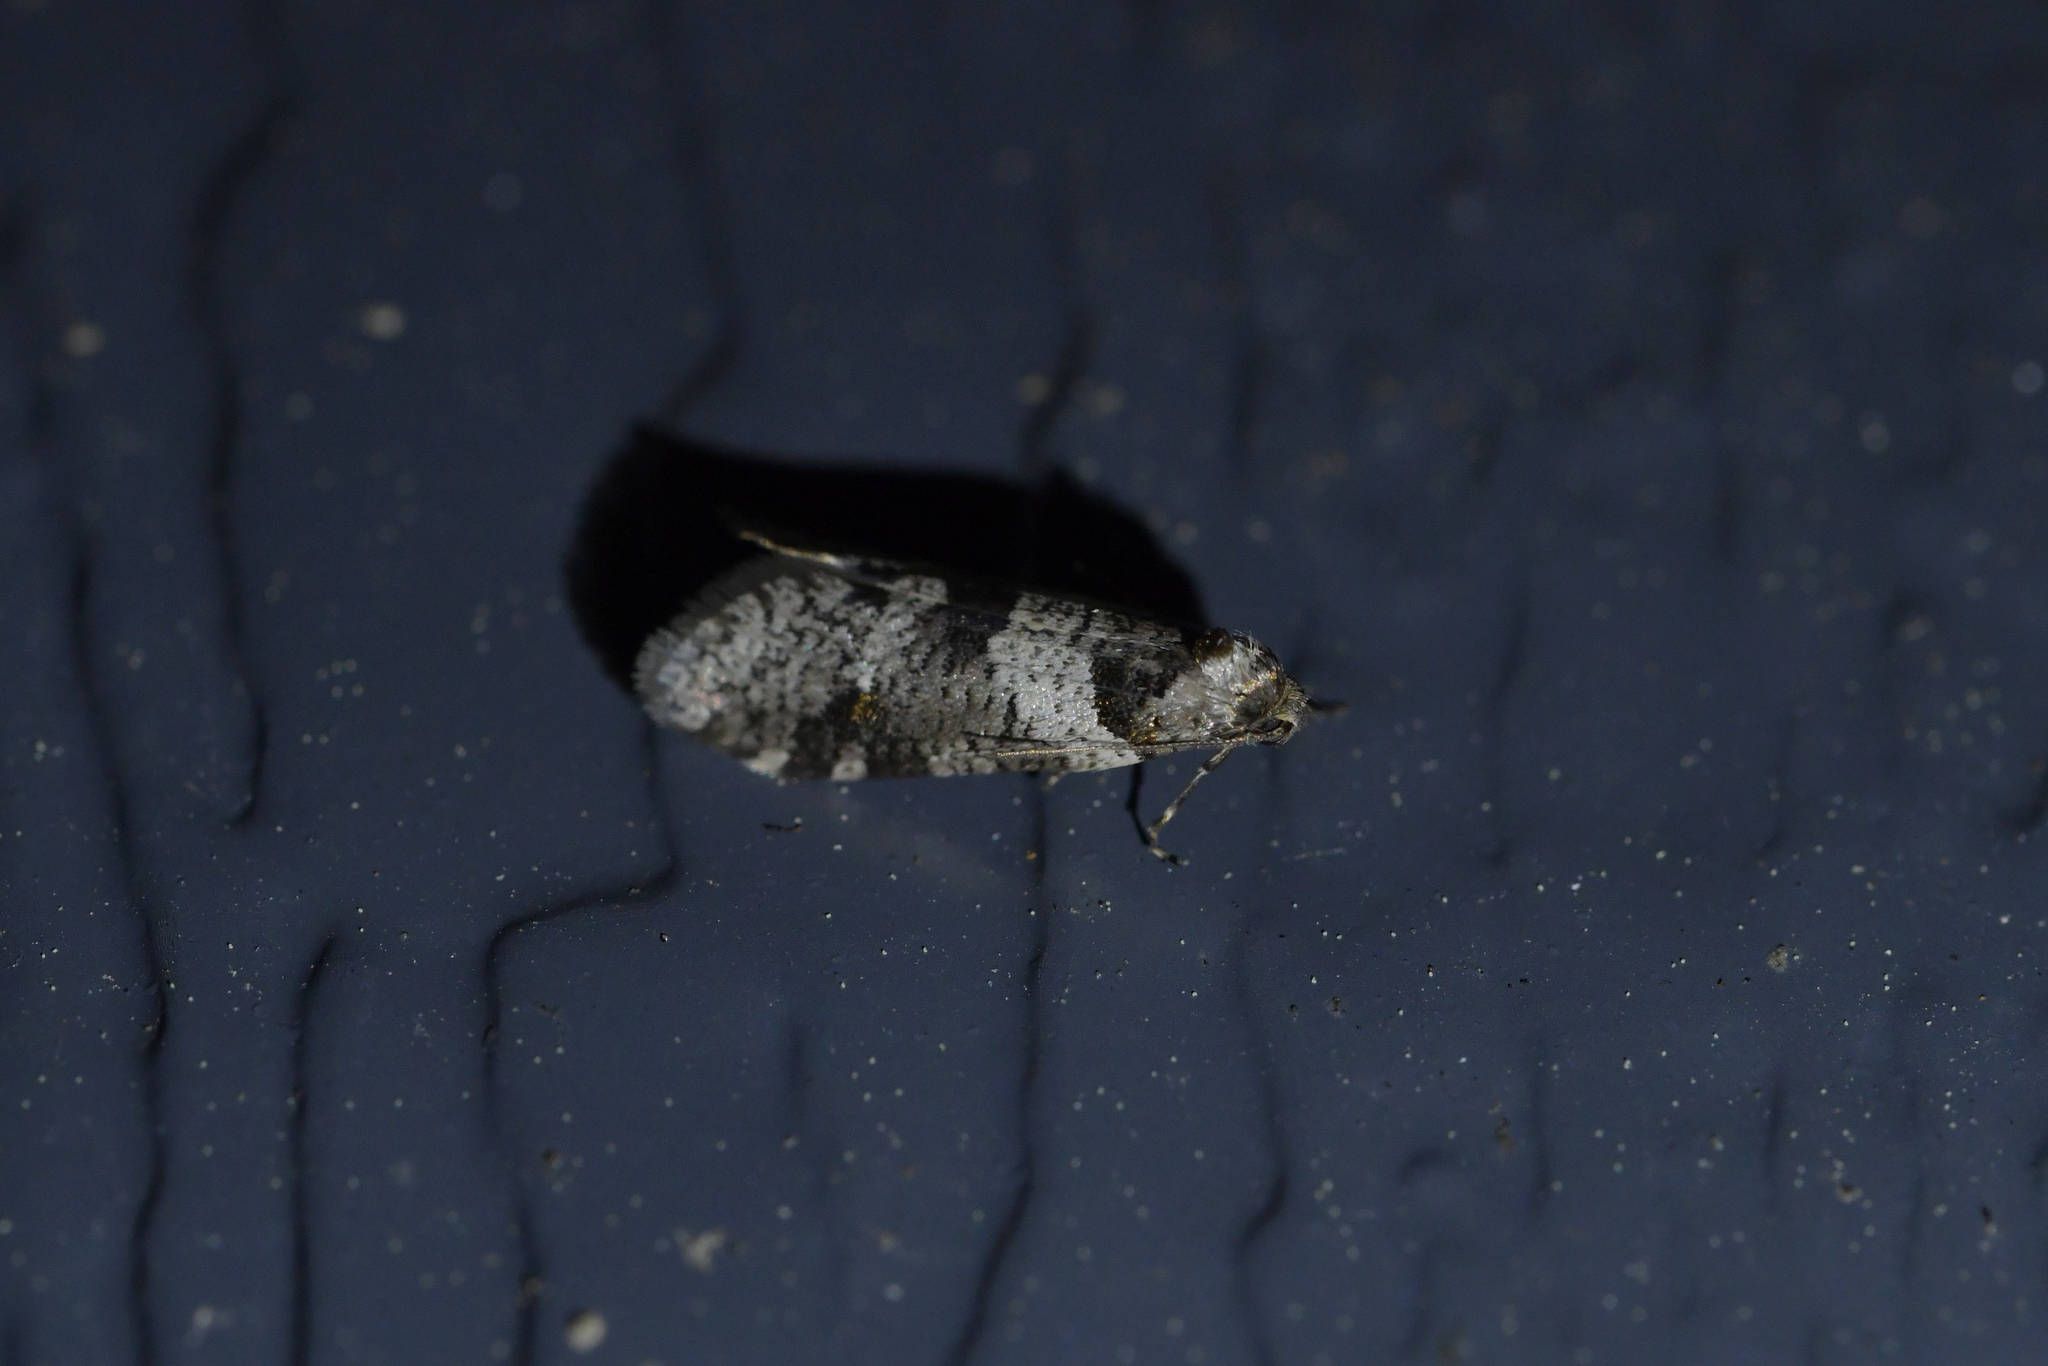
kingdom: Animalia
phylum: Arthropoda
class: Insecta
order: Lepidoptera
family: Psychidae
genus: Lepidoscia
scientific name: Lepidoscia heliochares
